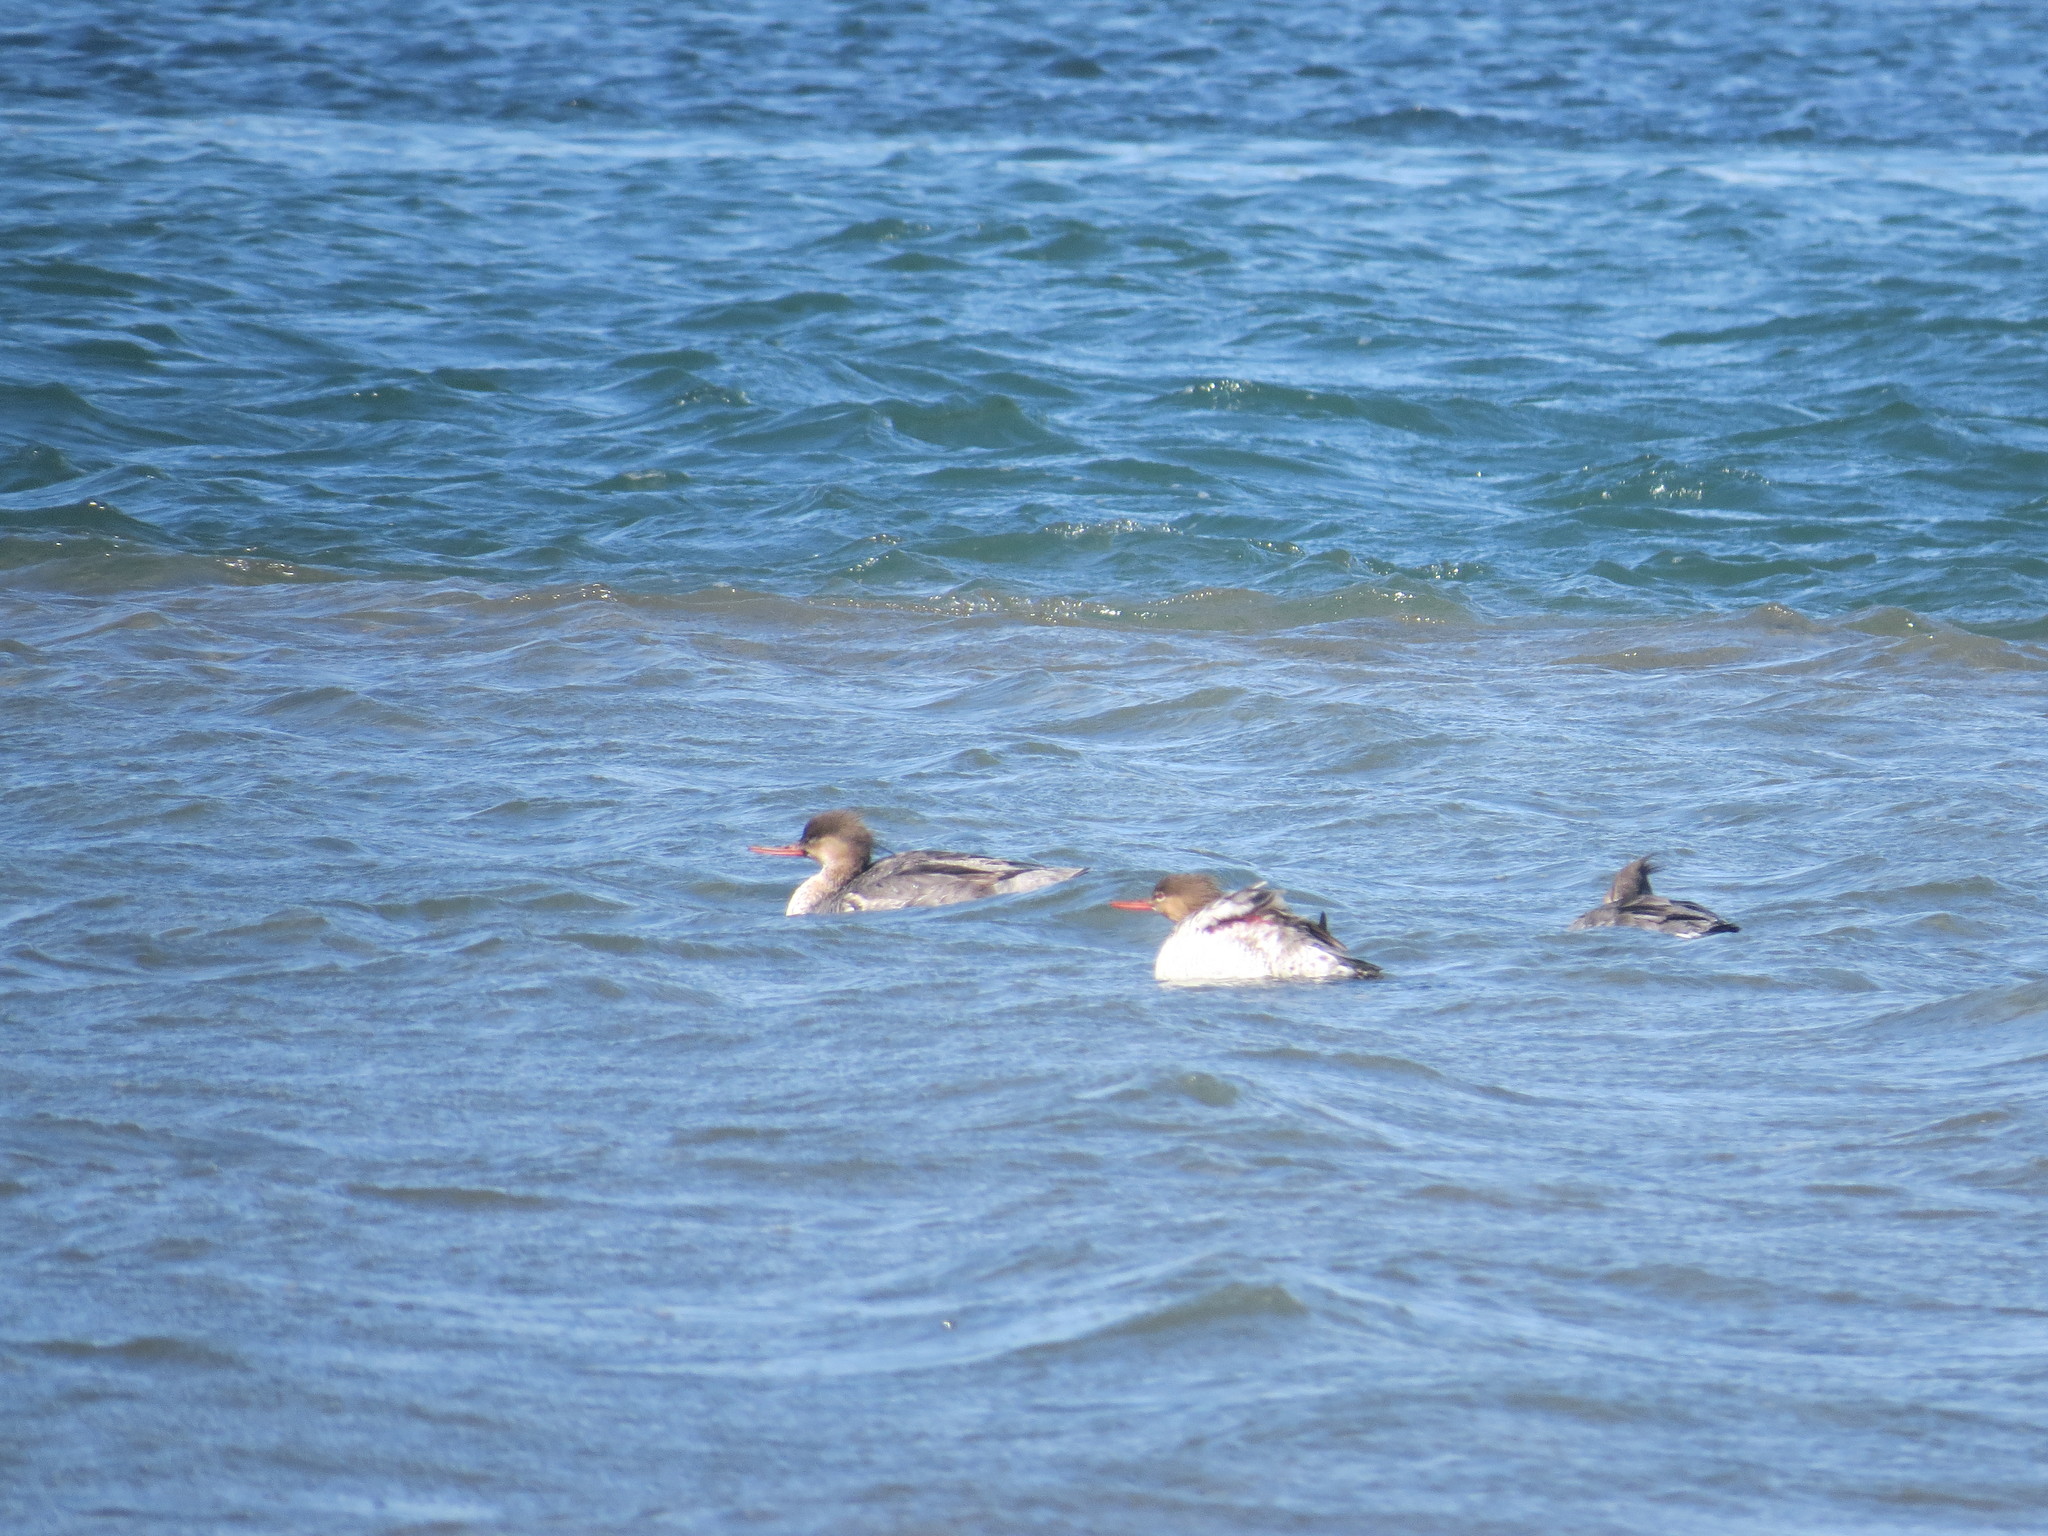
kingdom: Animalia
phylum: Chordata
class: Aves
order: Anseriformes
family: Anatidae
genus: Mergus
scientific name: Mergus serrator
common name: Red-breasted merganser
